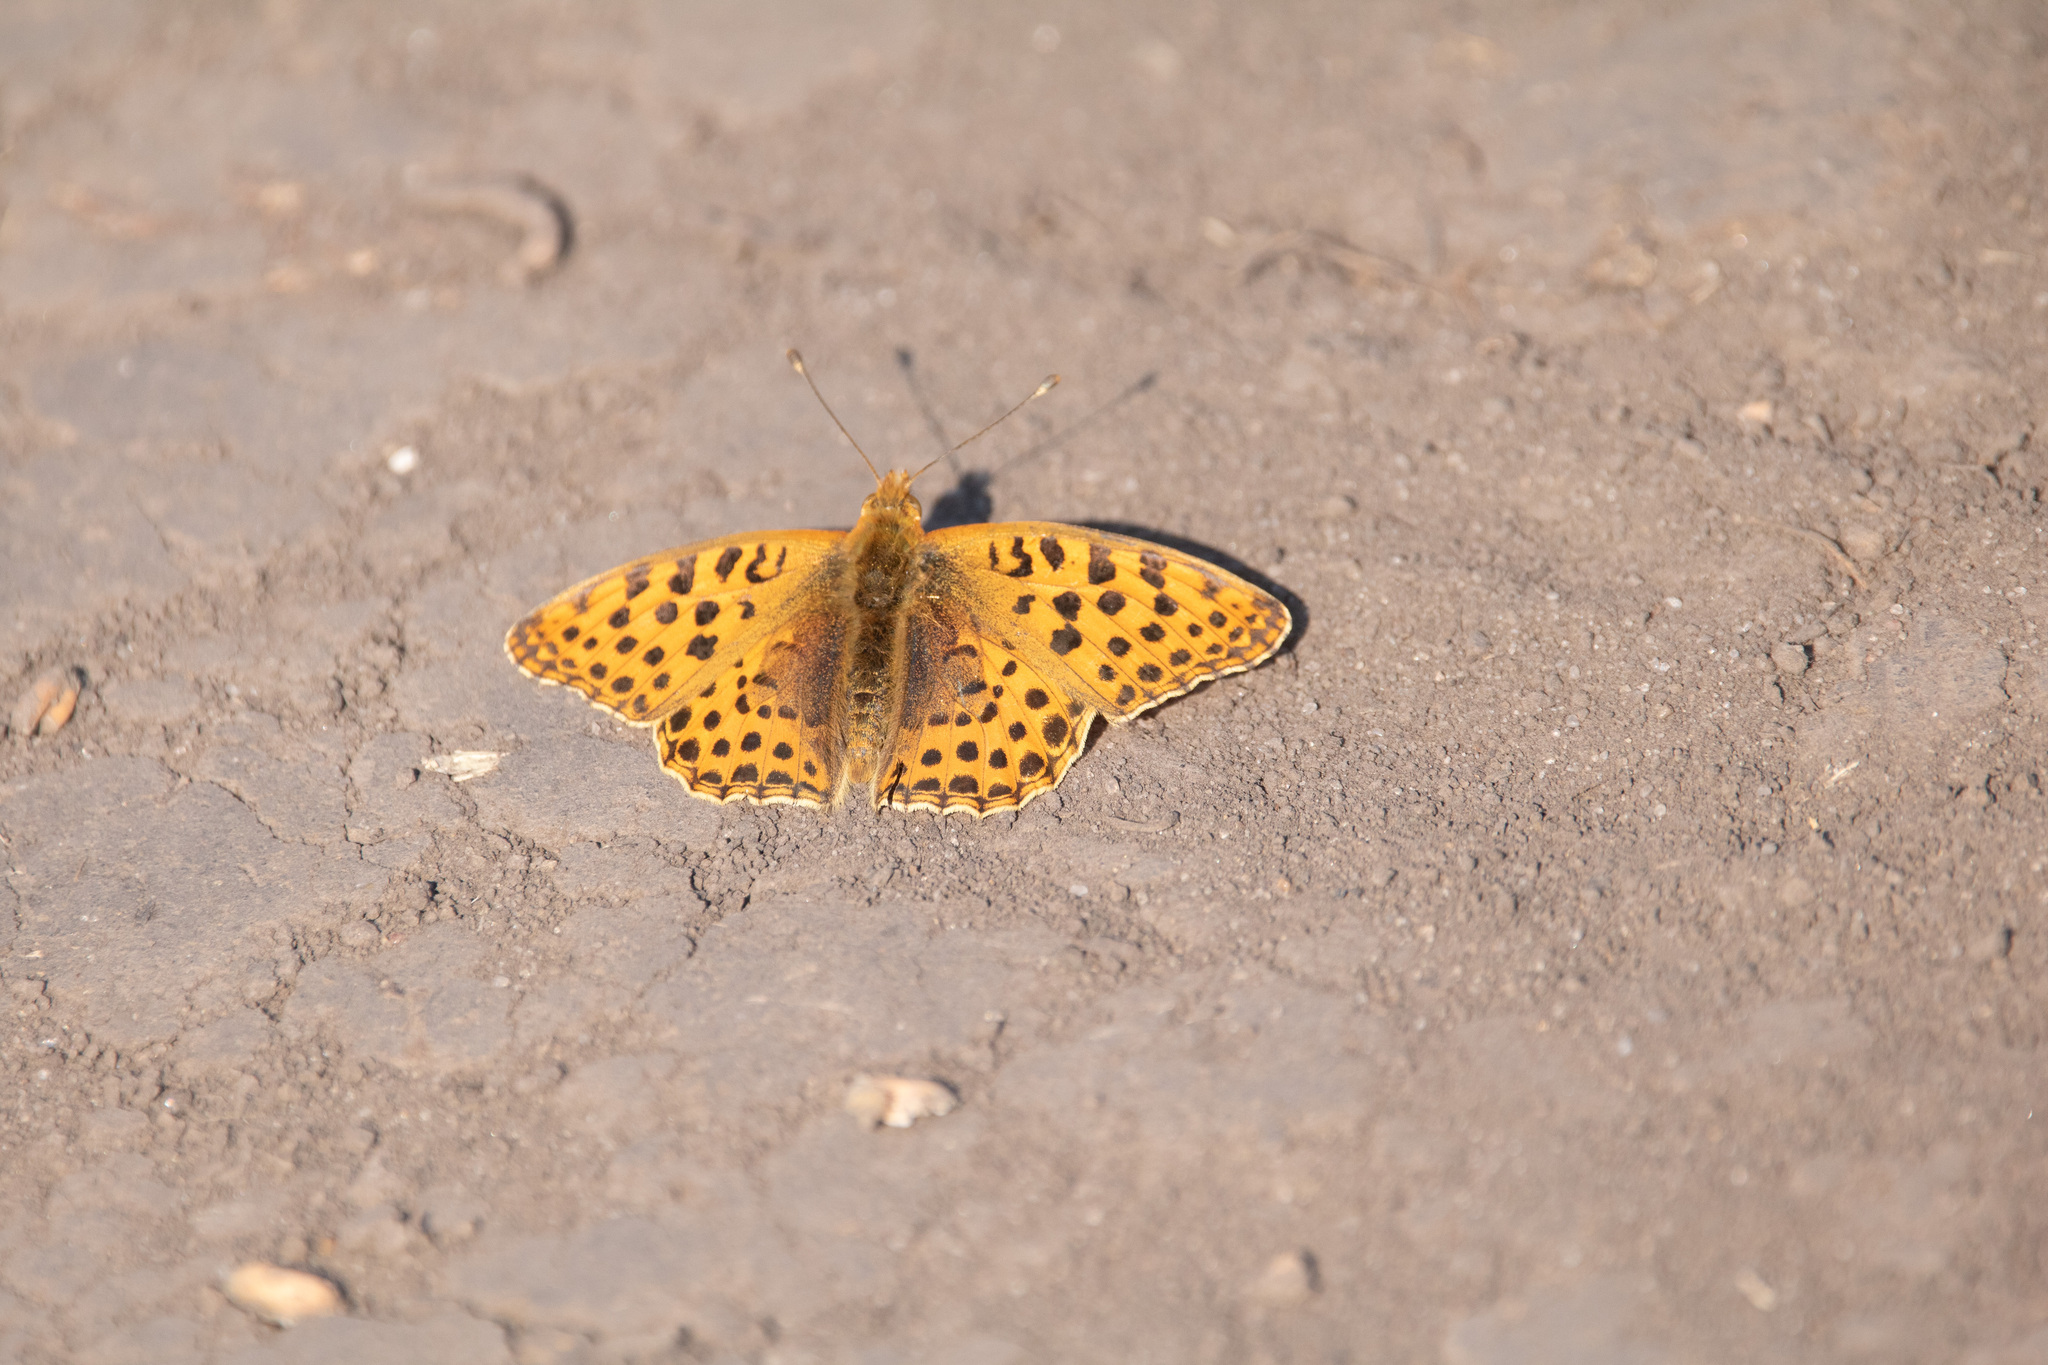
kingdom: Animalia
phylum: Arthropoda
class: Insecta
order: Lepidoptera
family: Nymphalidae
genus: Issoria
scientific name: Issoria lathonia
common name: Queen of spain fritillary
